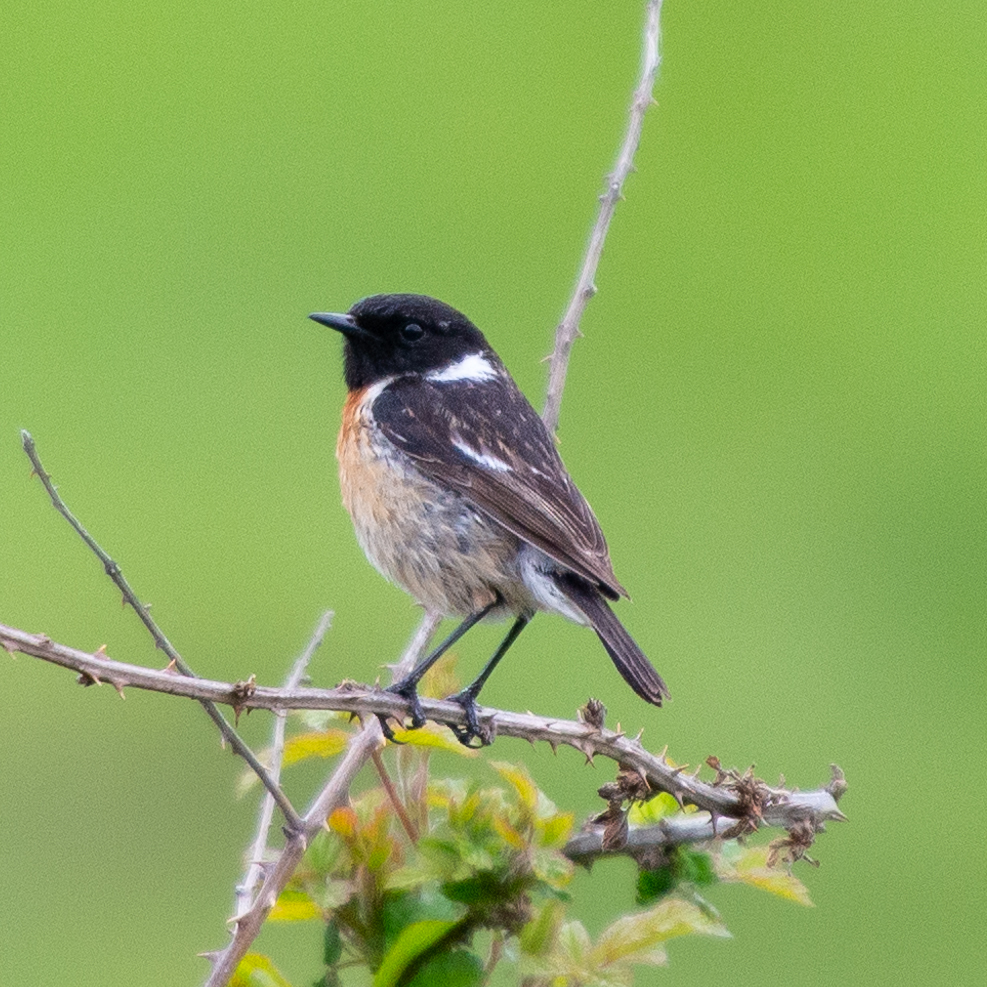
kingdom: Animalia
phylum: Chordata
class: Aves
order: Passeriformes
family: Muscicapidae
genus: Saxicola
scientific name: Saxicola rubicola
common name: European stonechat
